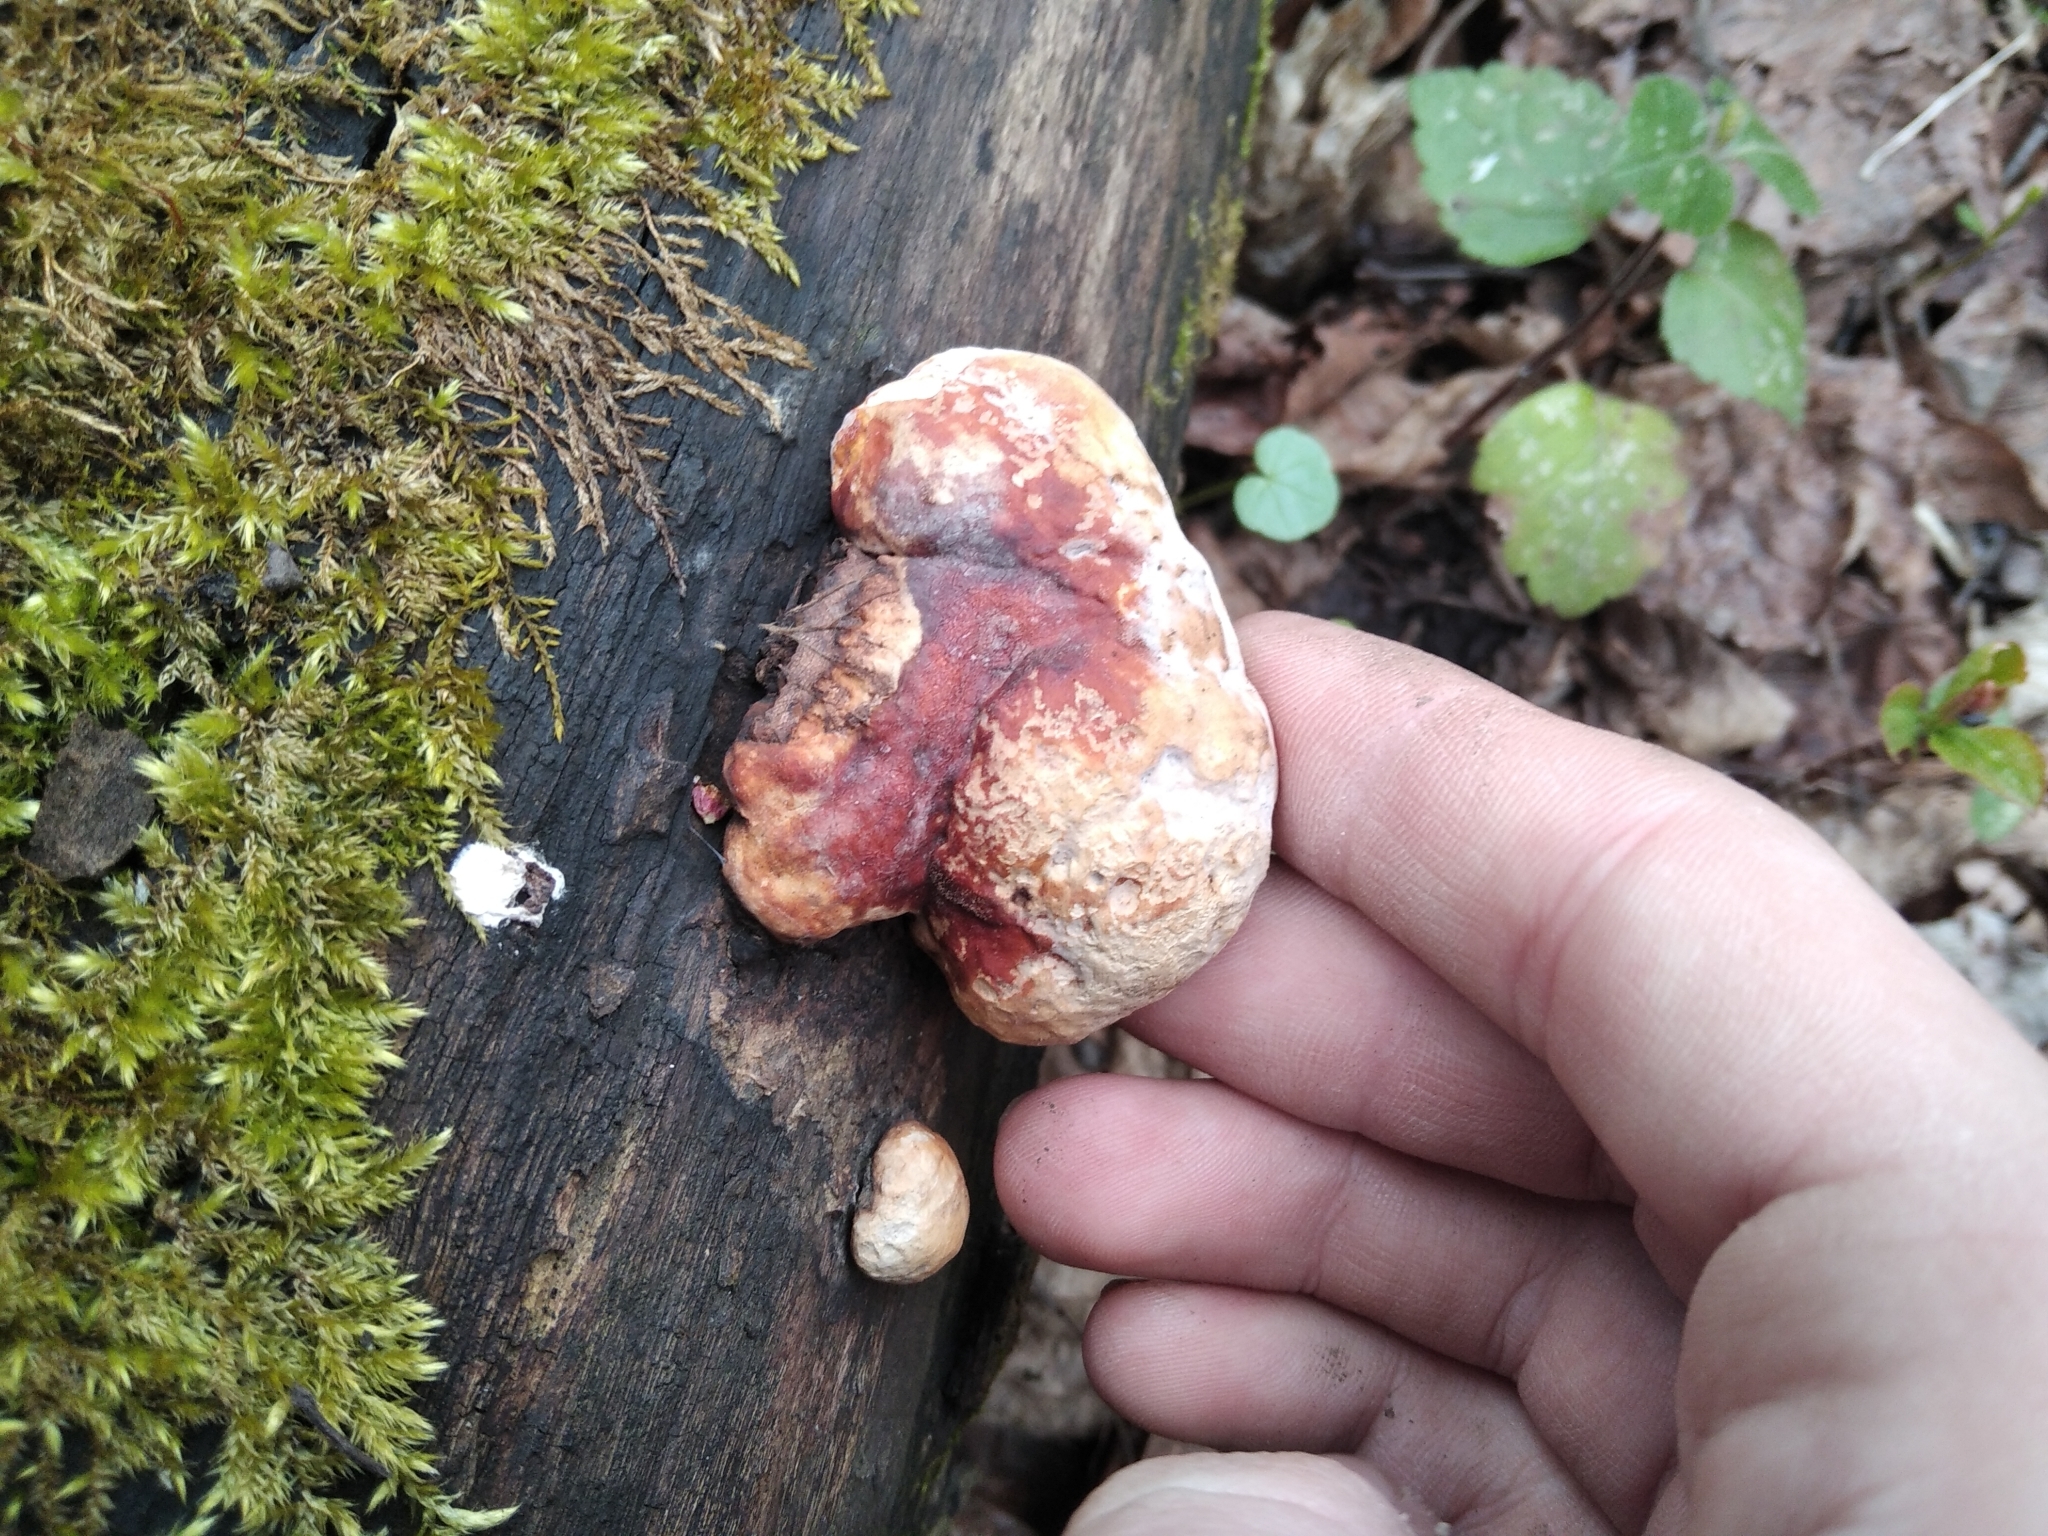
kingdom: Fungi
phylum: Basidiomycota
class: Agaricomycetes
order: Polyporales
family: Fomitopsidaceae
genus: Fomitopsis
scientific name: Fomitopsis pinicola
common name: Red-belted bracket
